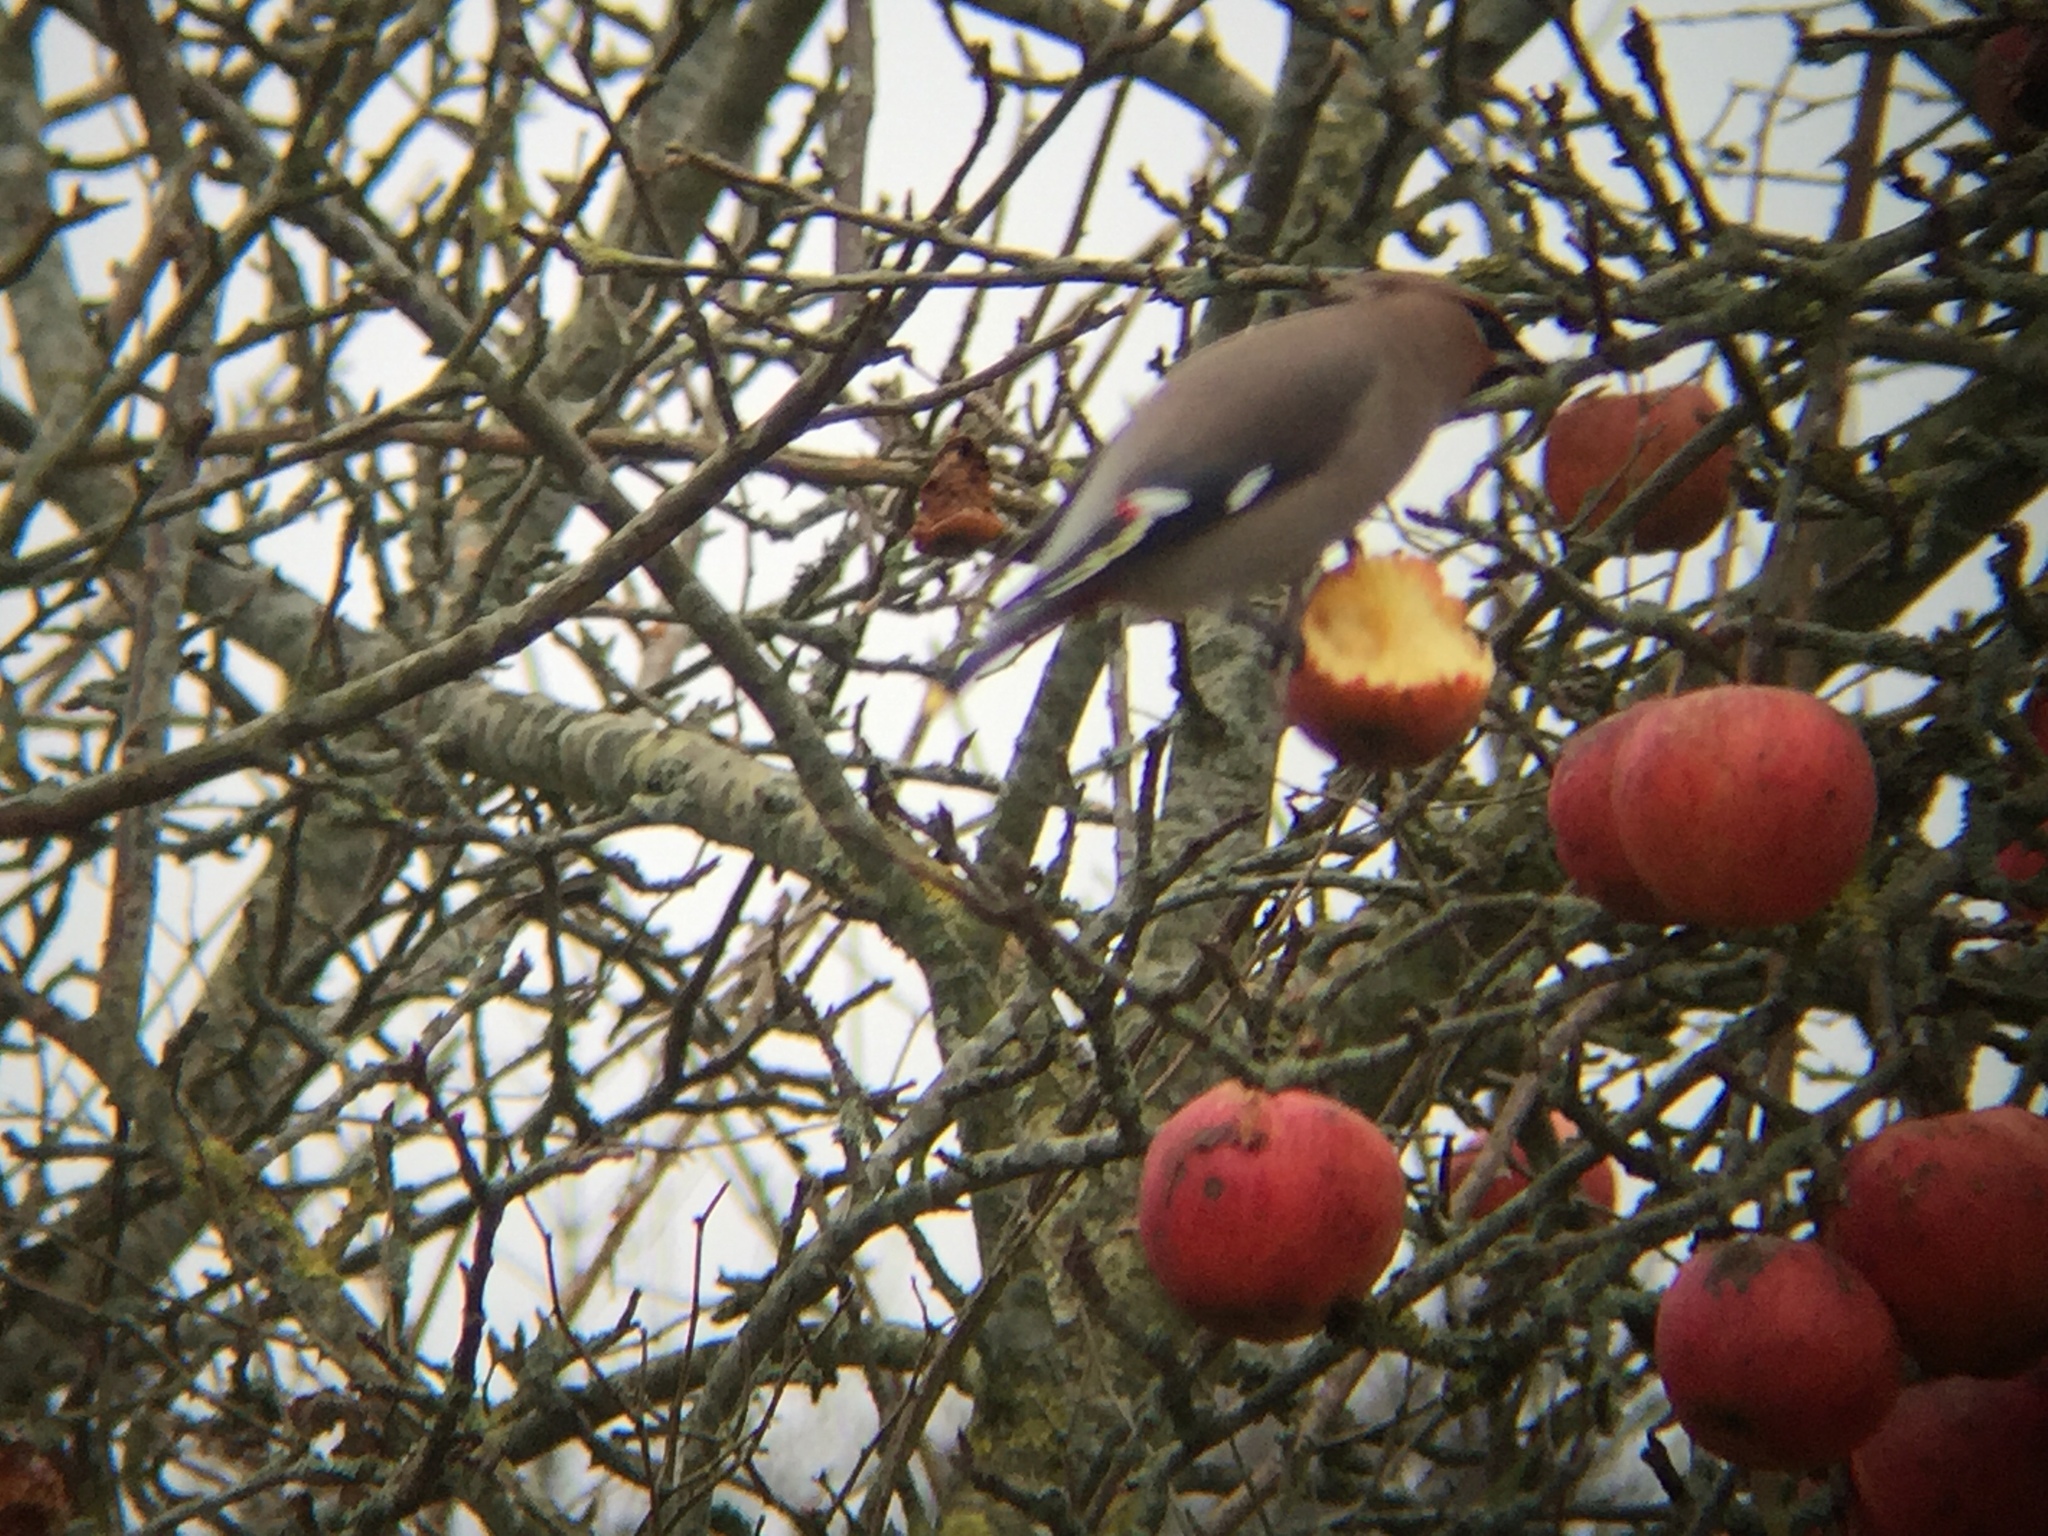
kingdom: Animalia
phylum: Chordata
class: Aves
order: Passeriformes
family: Bombycillidae
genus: Bombycilla
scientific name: Bombycilla garrulus
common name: Bohemian waxwing
